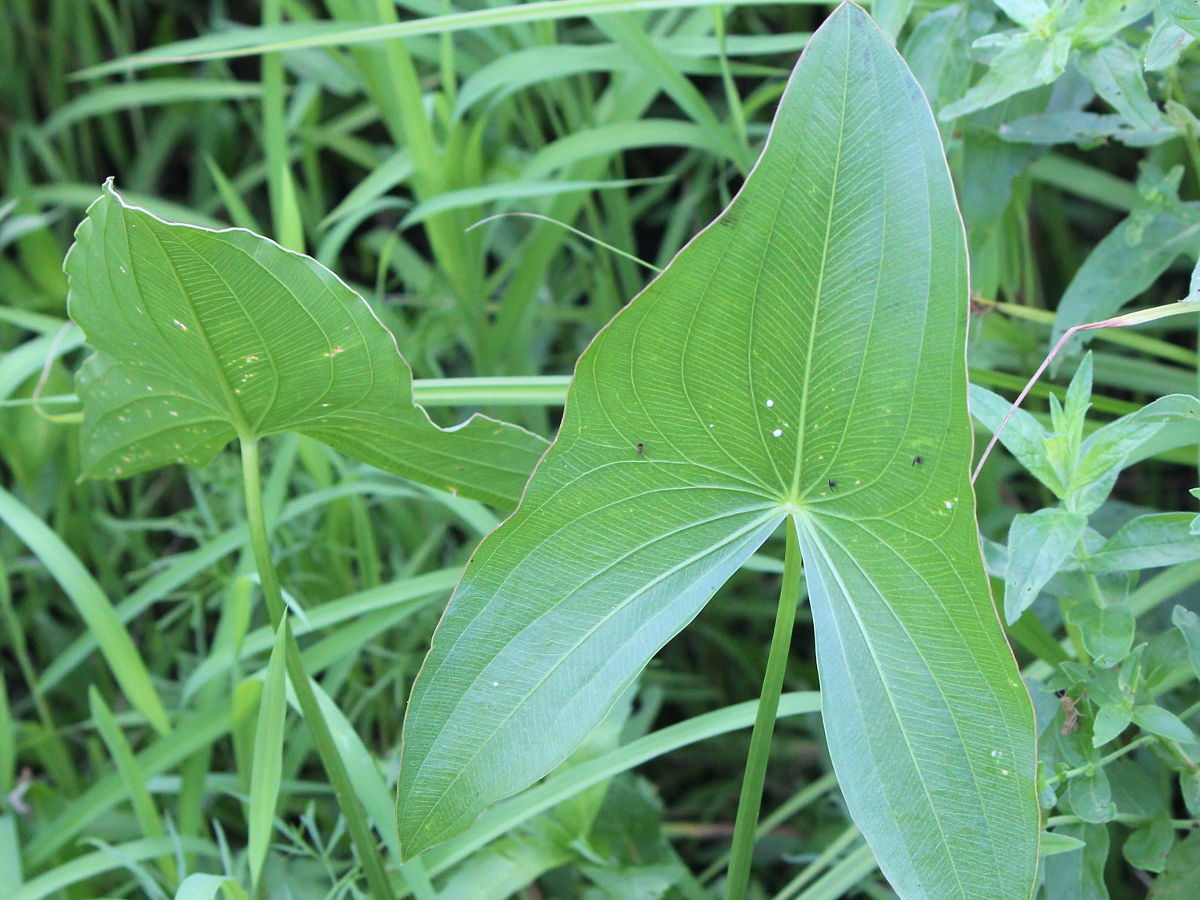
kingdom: Plantae
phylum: Tracheophyta
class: Liliopsida
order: Alismatales
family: Alismataceae
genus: Sagittaria
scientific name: Sagittaria
